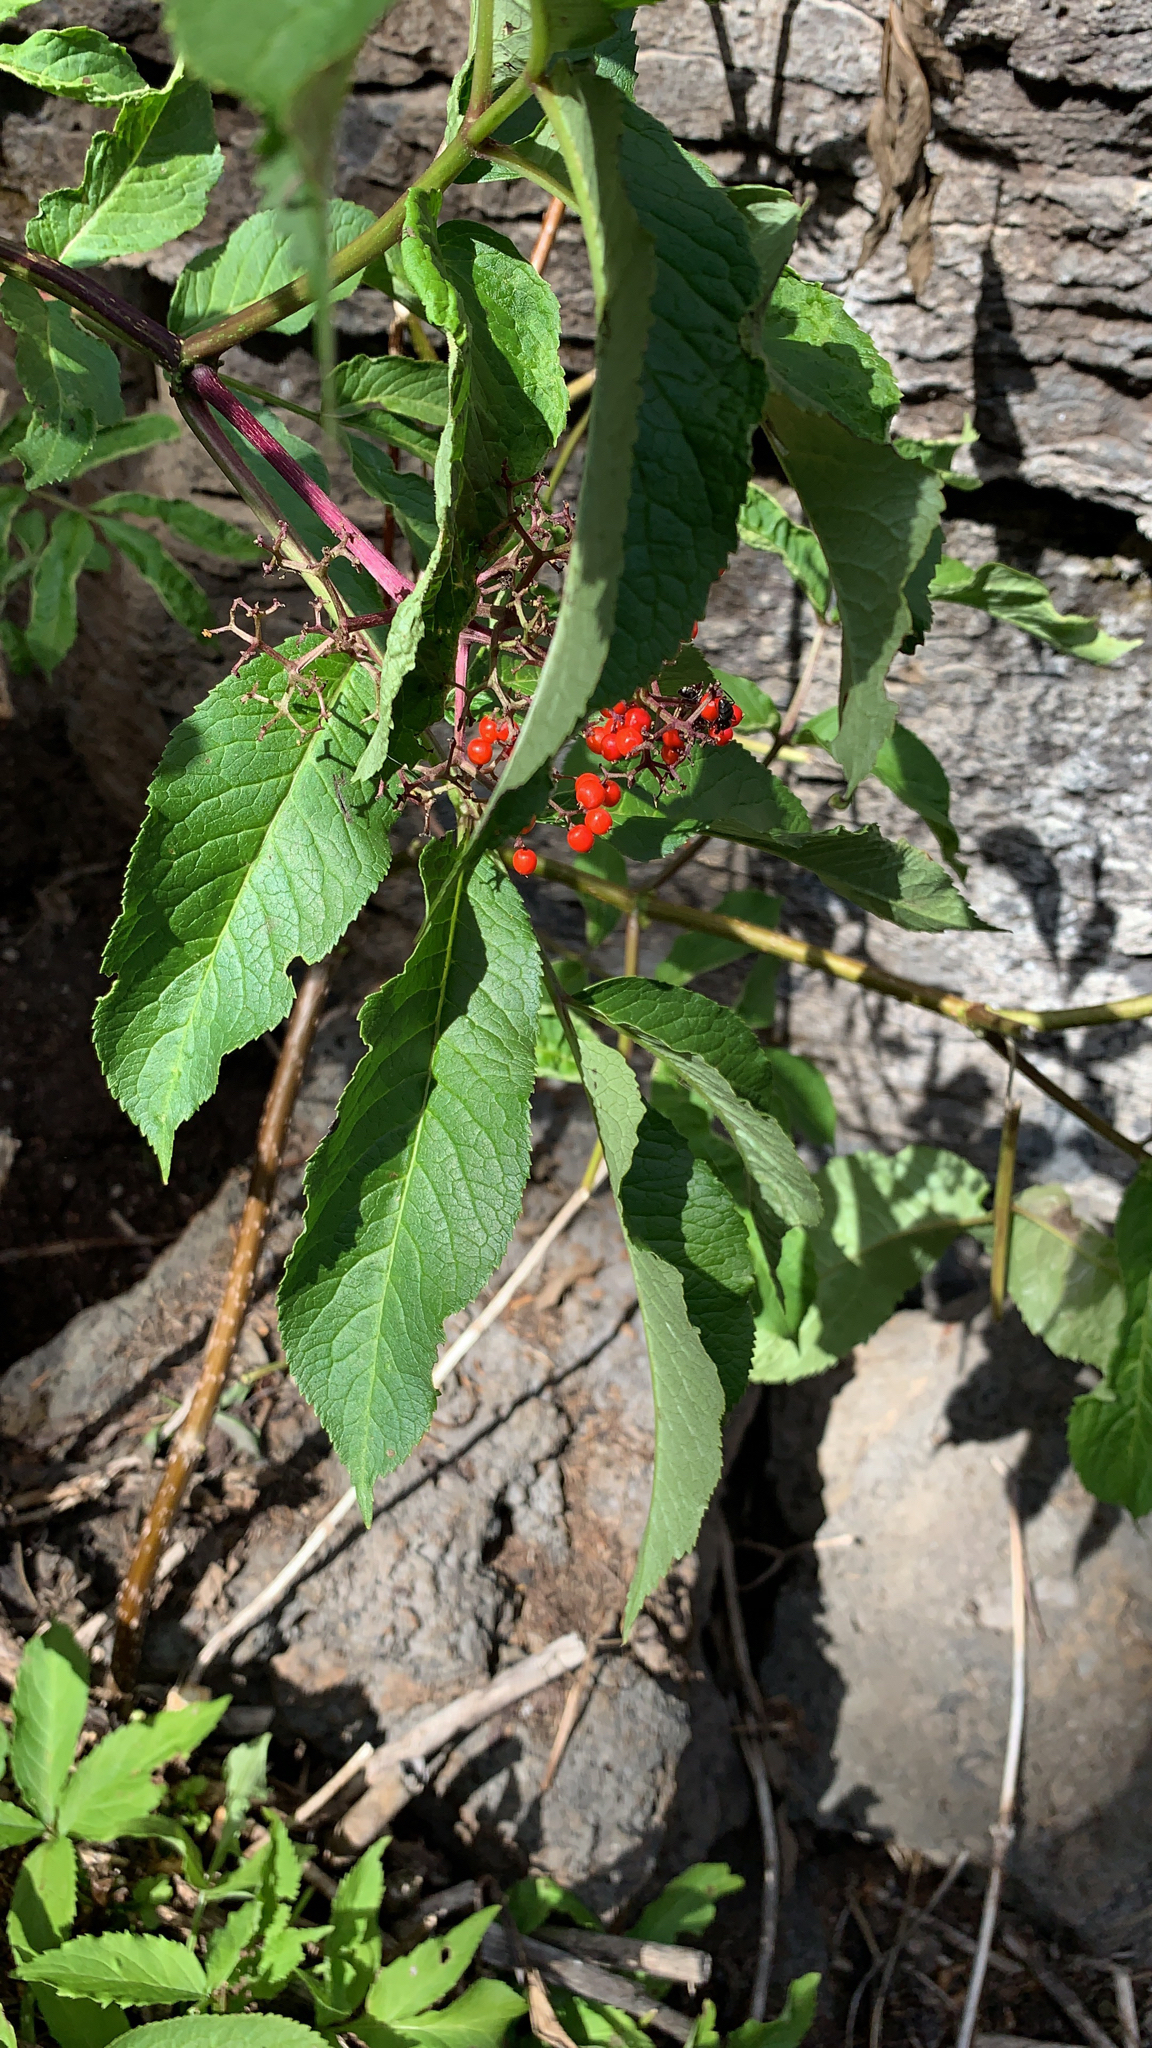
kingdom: Plantae
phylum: Tracheophyta
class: Magnoliopsida
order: Dipsacales
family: Viburnaceae
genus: Sambucus
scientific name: Sambucus racemosa
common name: Red-berried elder
